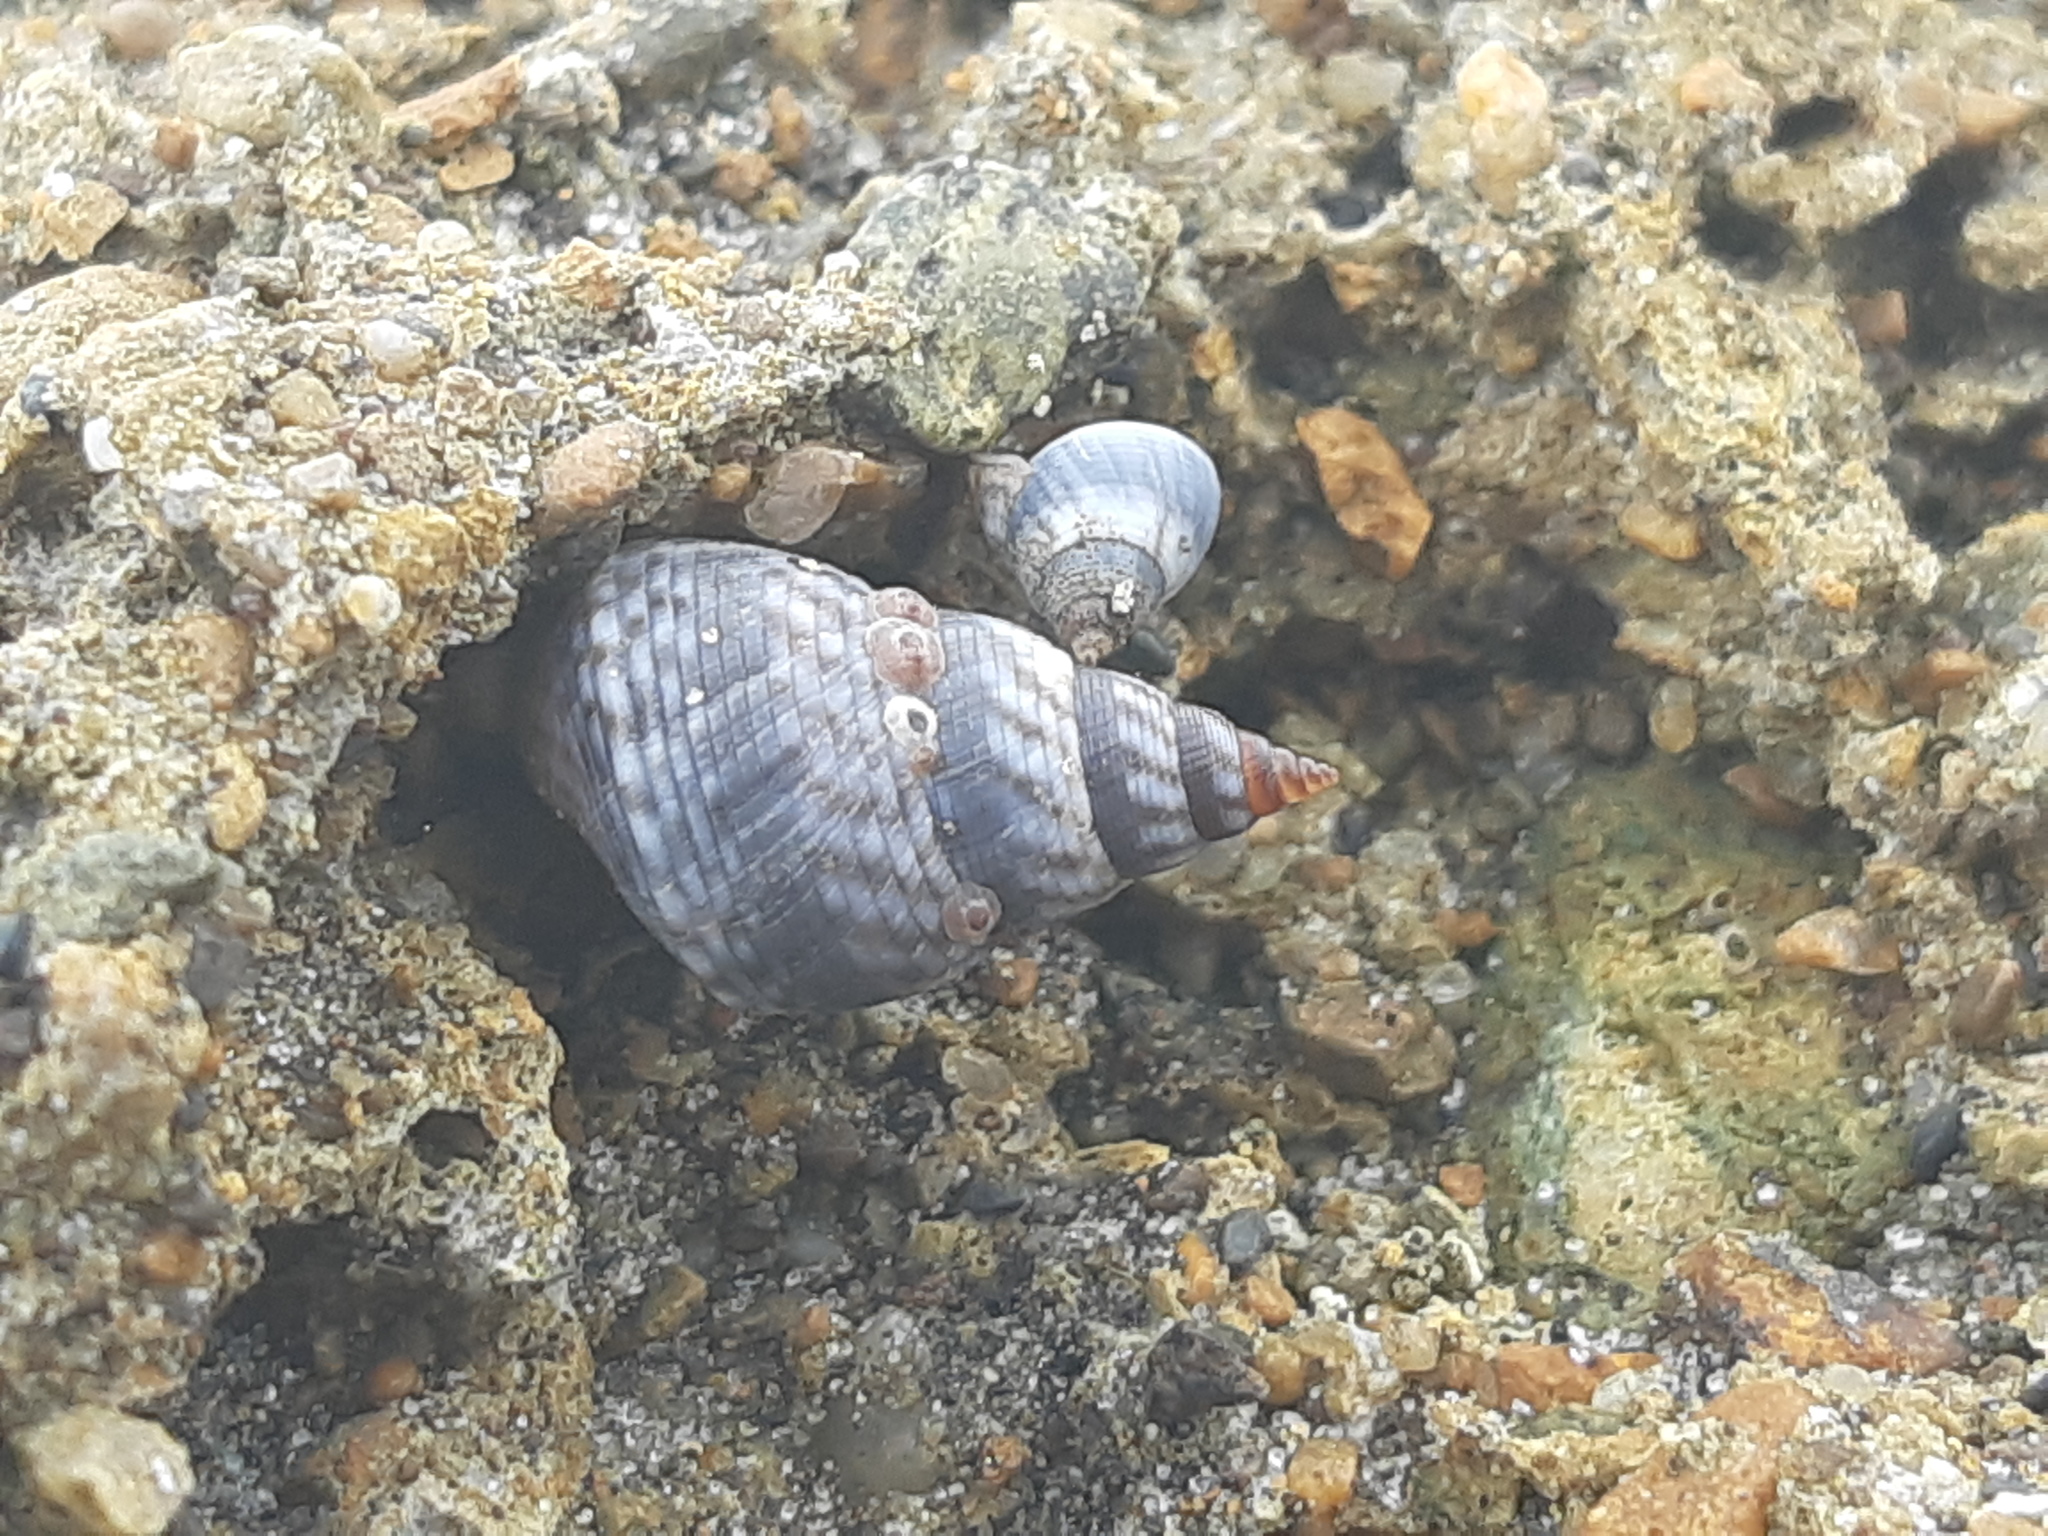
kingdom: Animalia
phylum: Mollusca
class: Gastropoda
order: Littorinimorpha
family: Littorinidae
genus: Echinolittorina
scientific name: Echinolittorina aspera
